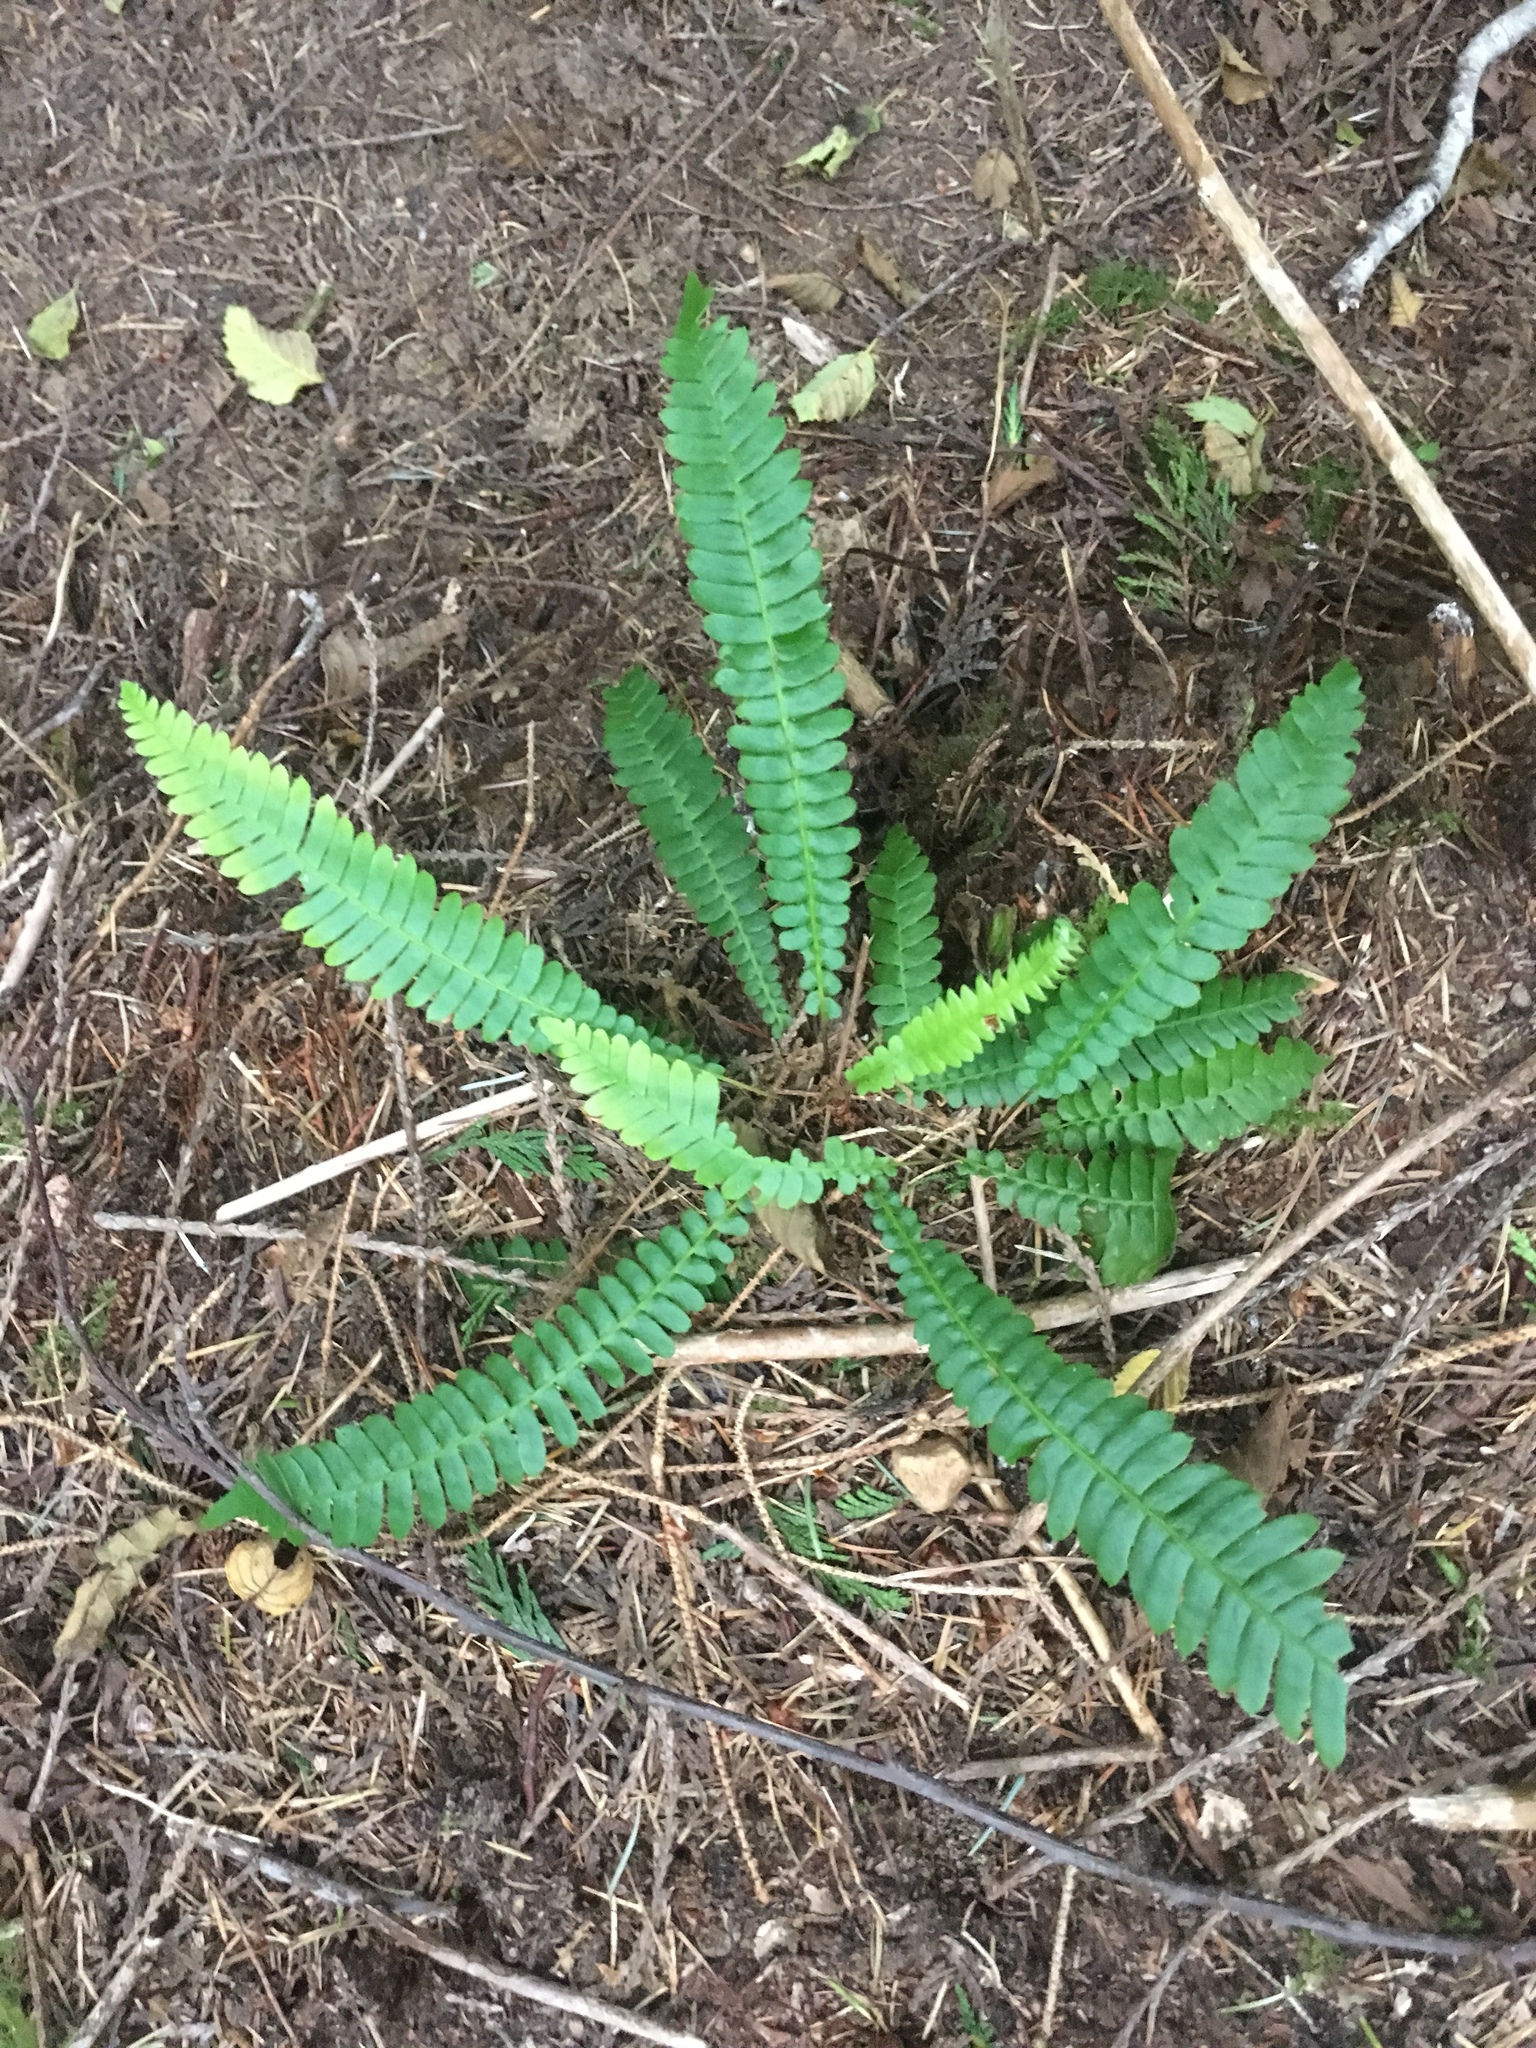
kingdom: Plantae
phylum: Tracheophyta
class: Polypodiopsida
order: Polypodiales
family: Blechnaceae
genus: Struthiopteris
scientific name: Struthiopteris spicant
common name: Deer fern
